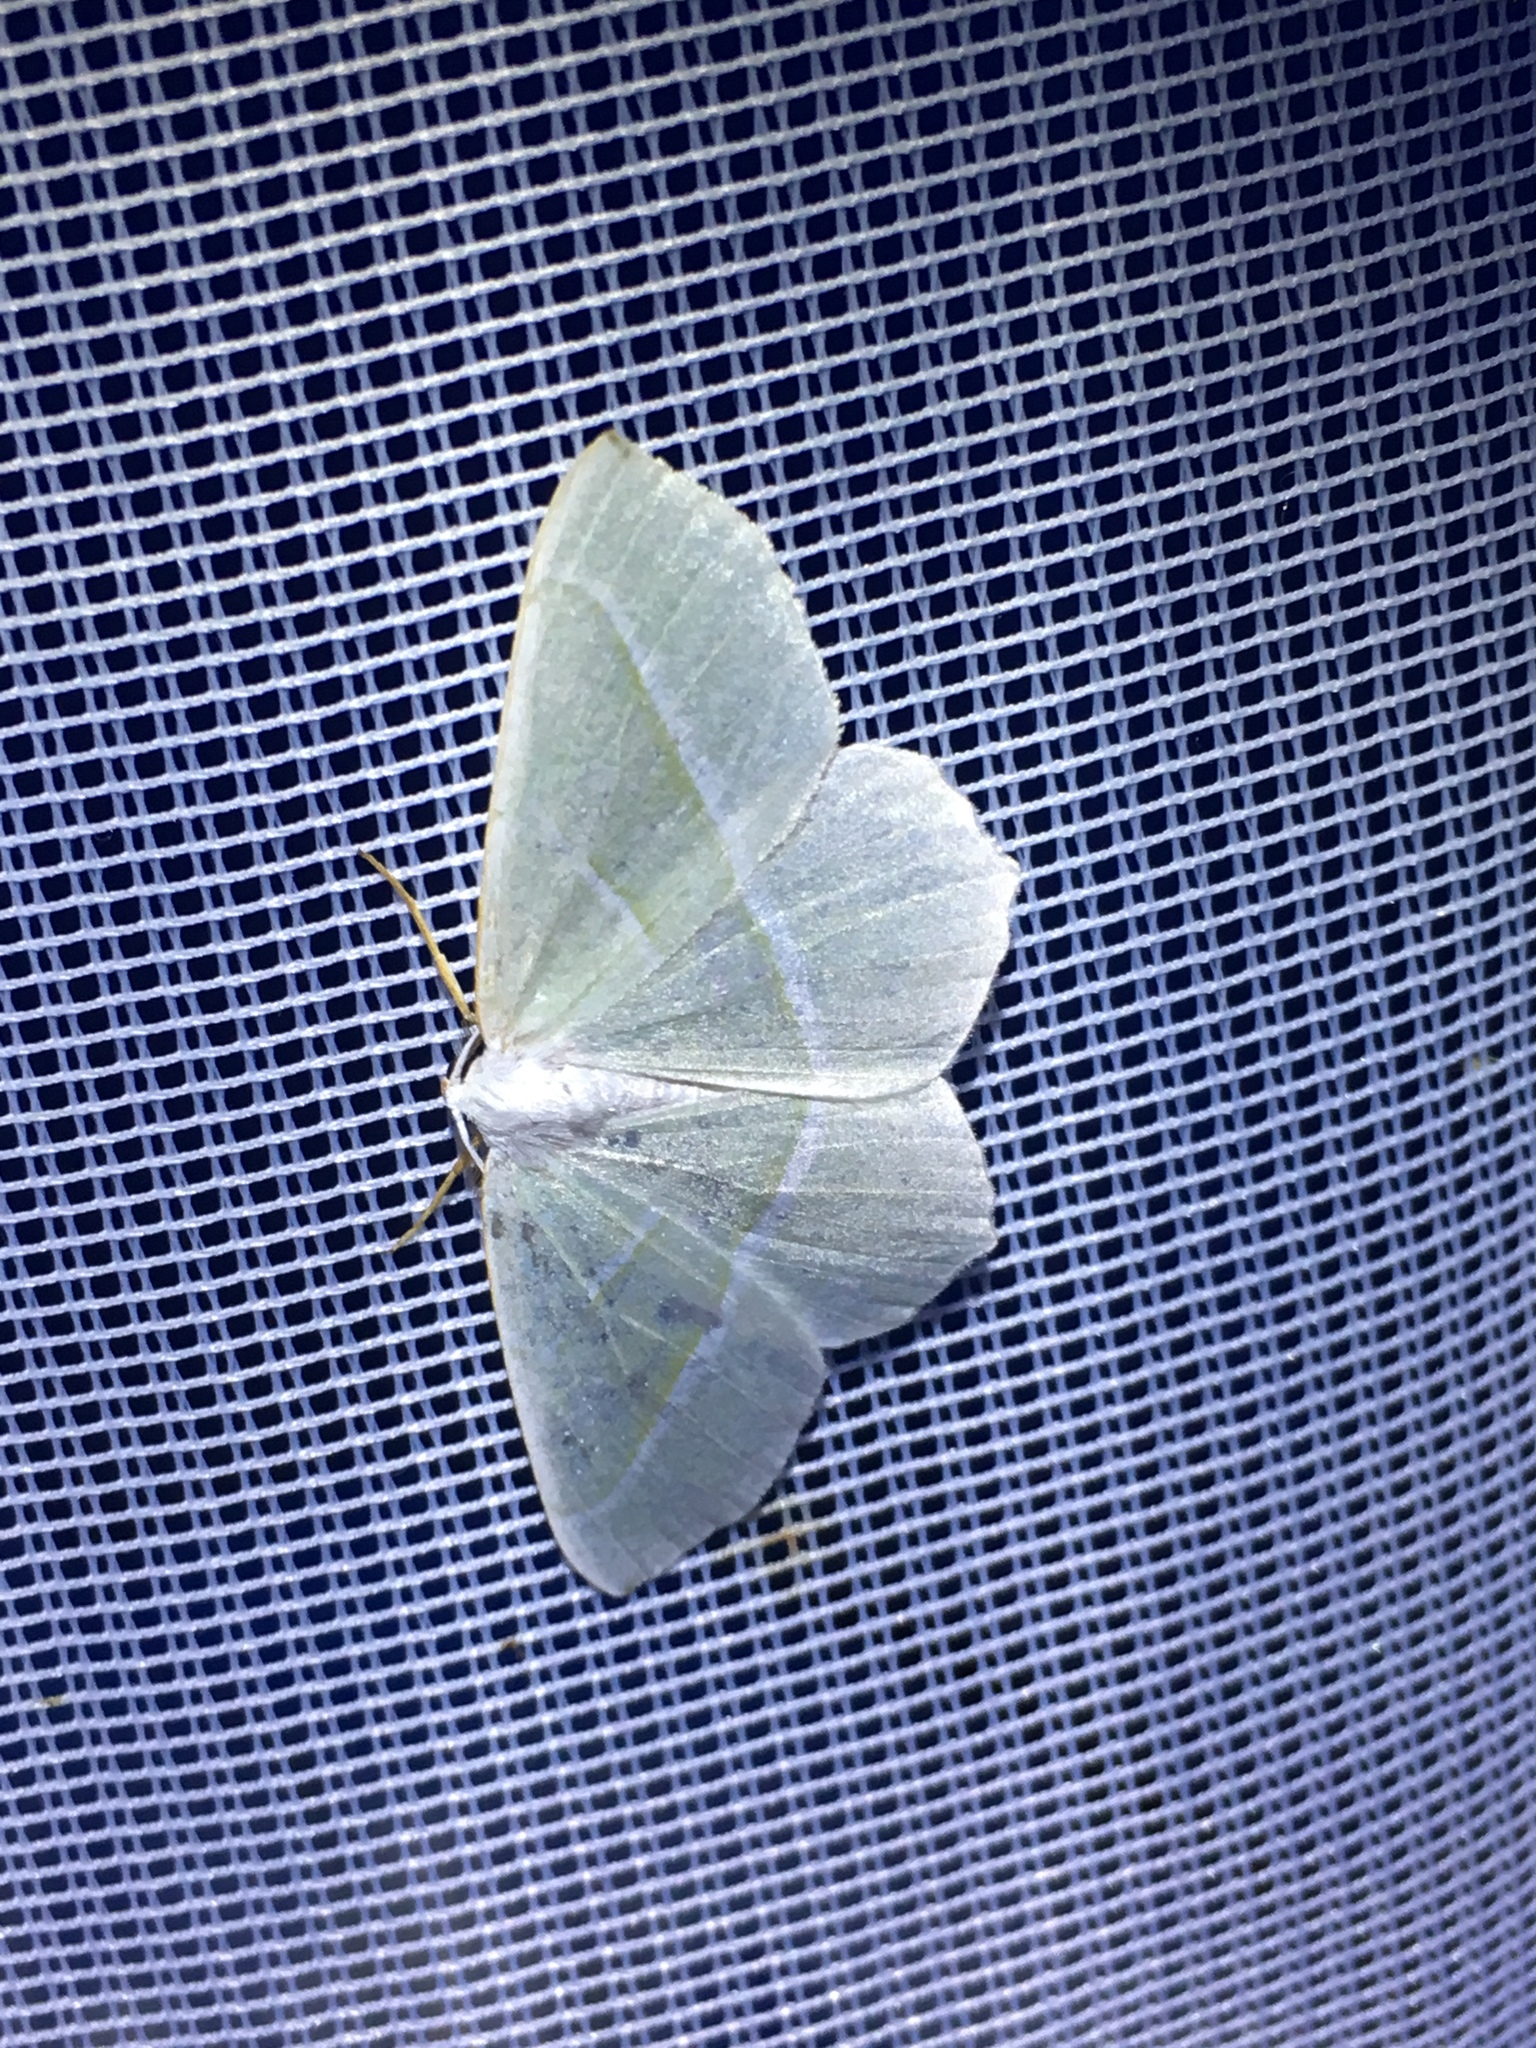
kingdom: Animalia
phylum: Arthropoda
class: Insecta
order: Lepidoptera
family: Geometridae
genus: Campaea
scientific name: Campaea margaritaria
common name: Light emerald
